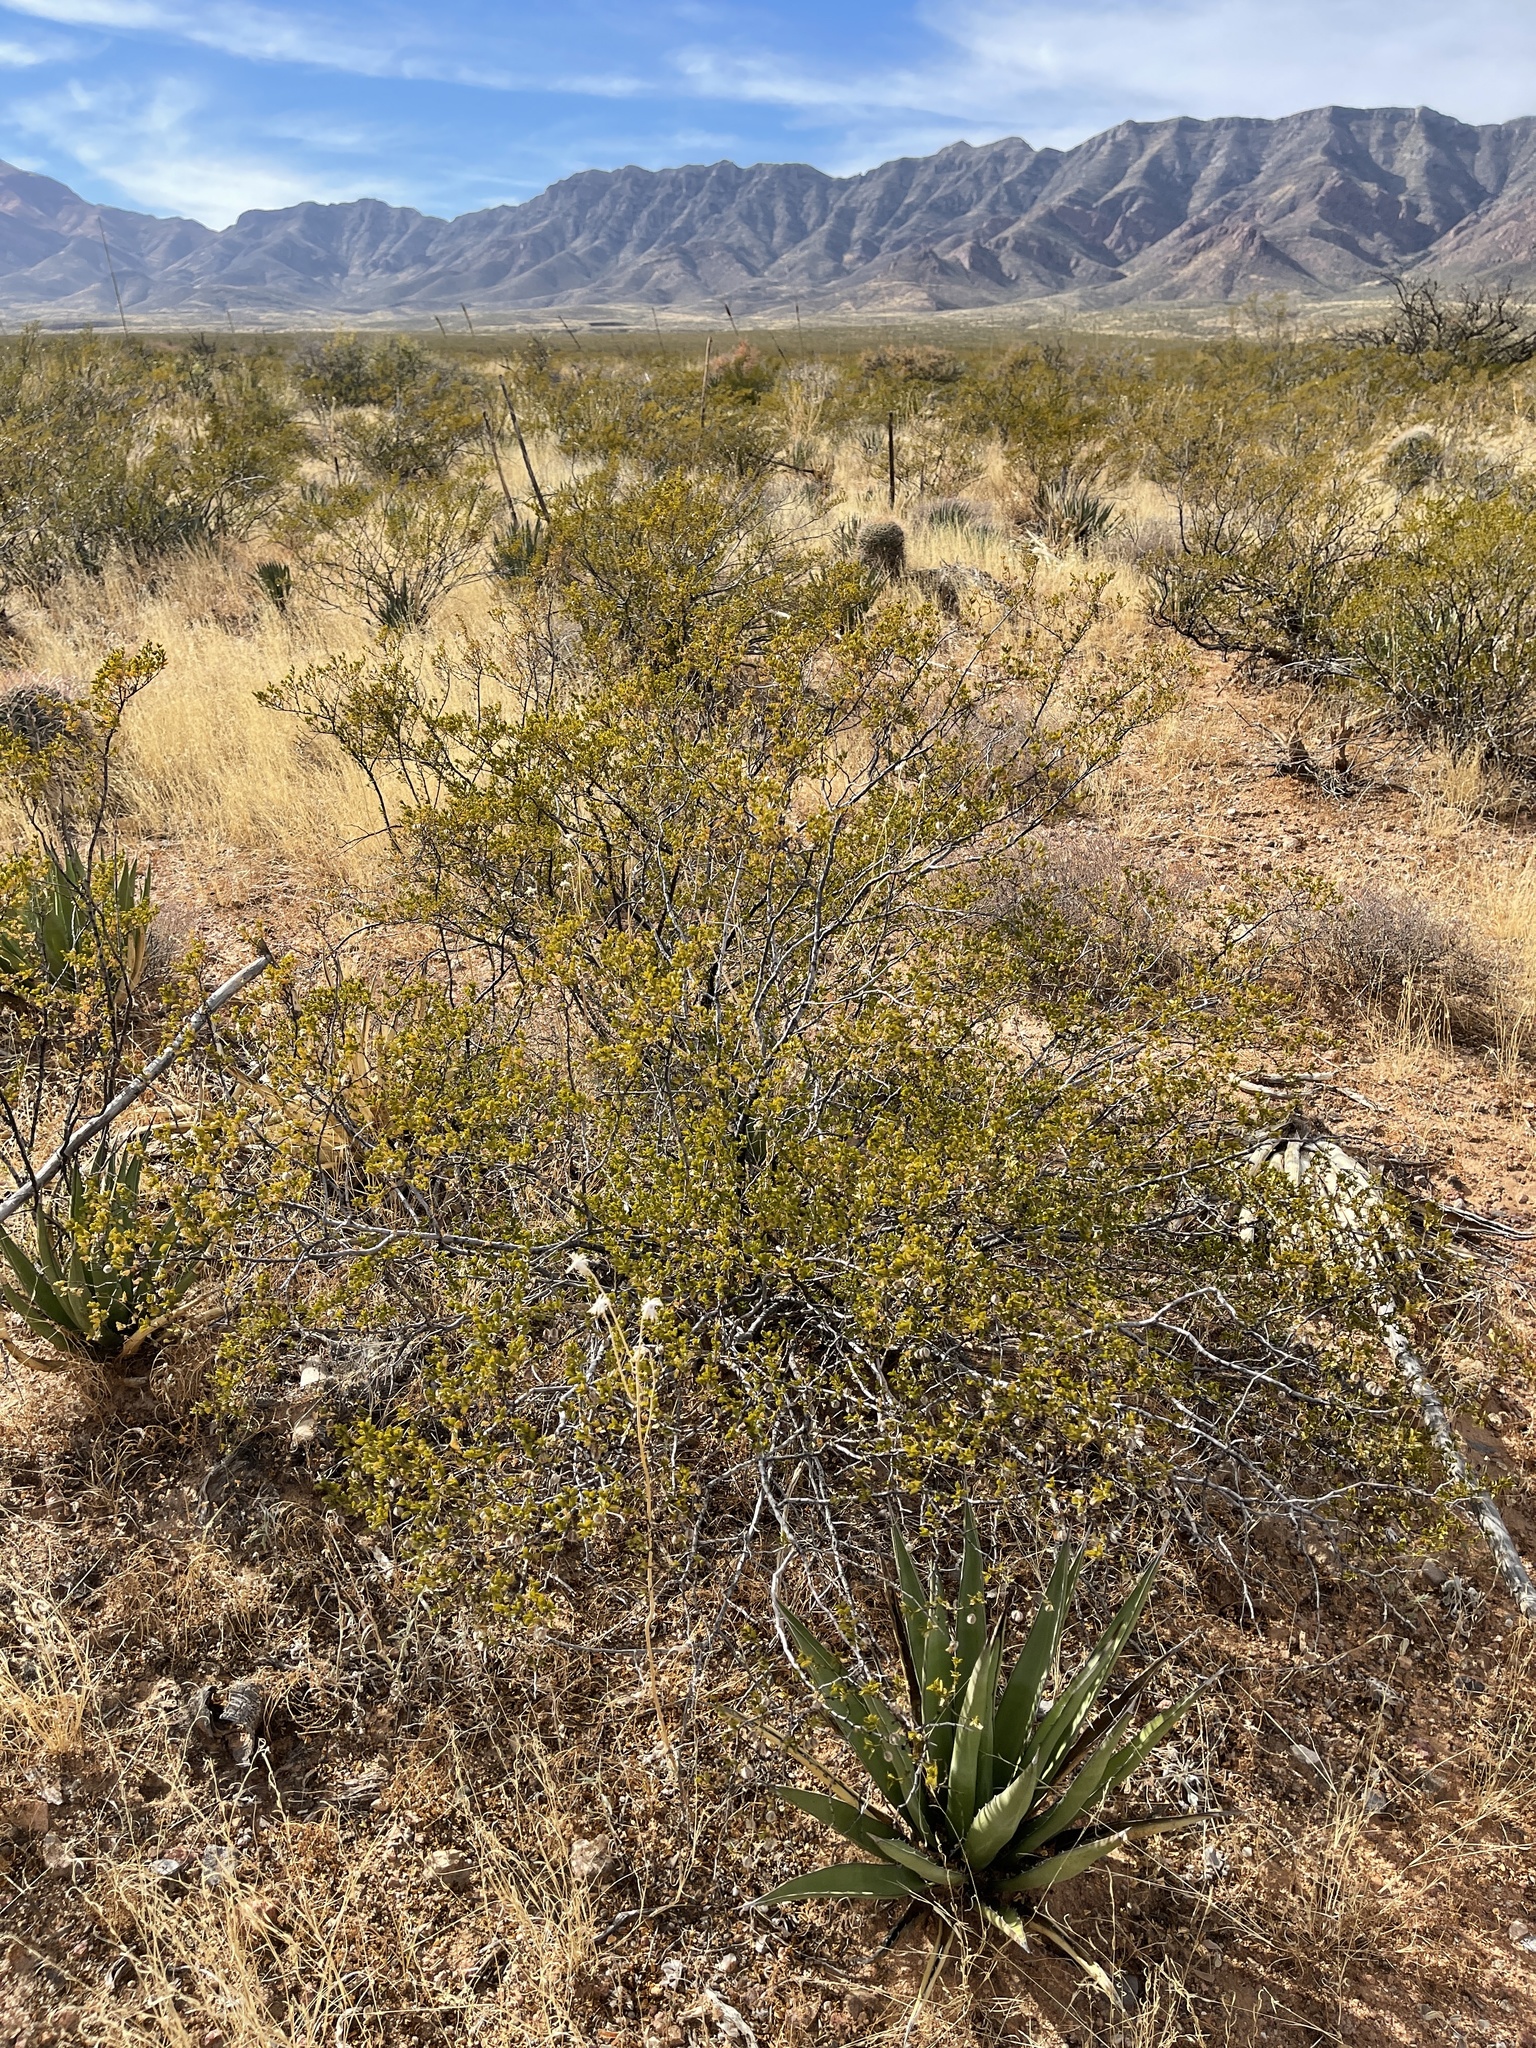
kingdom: Plantae
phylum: Tracheophyta
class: Magnoliopsida
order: Zygophyllales
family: Zygophyllaceae
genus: Larrea
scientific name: Larrea tridentata
